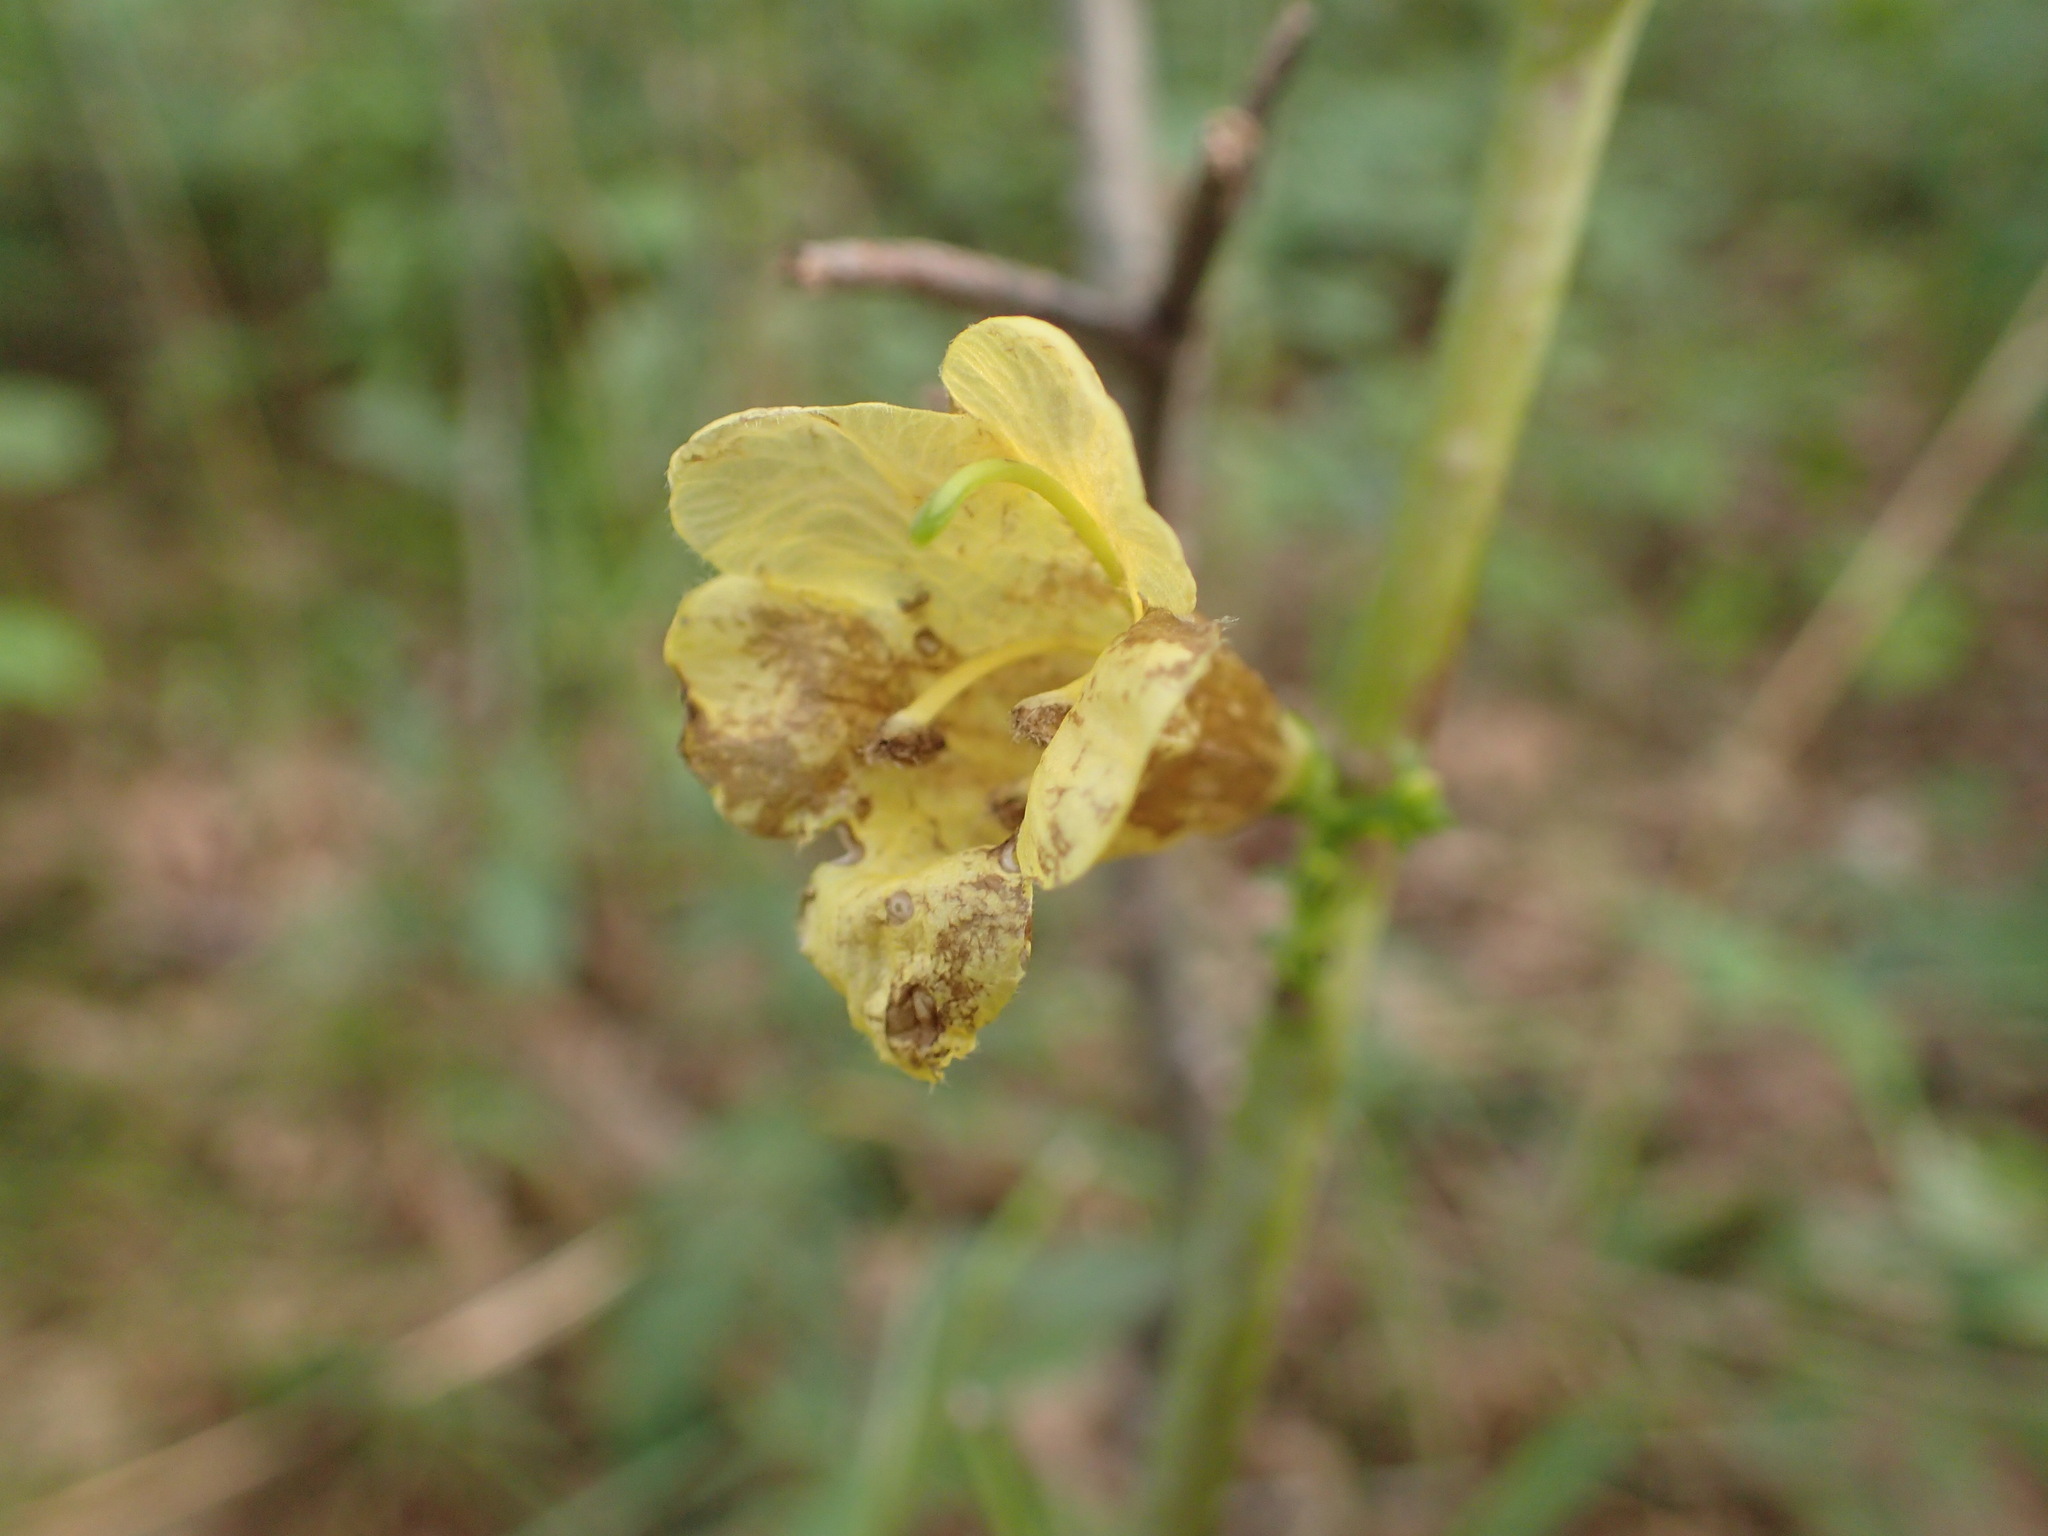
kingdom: Plantae
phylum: Tracheophyta
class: Magnoliopsida
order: Lamiales
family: Orobanchaceae
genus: Aureolaria
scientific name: Aureolaria flava
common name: Smooth false foxglove
